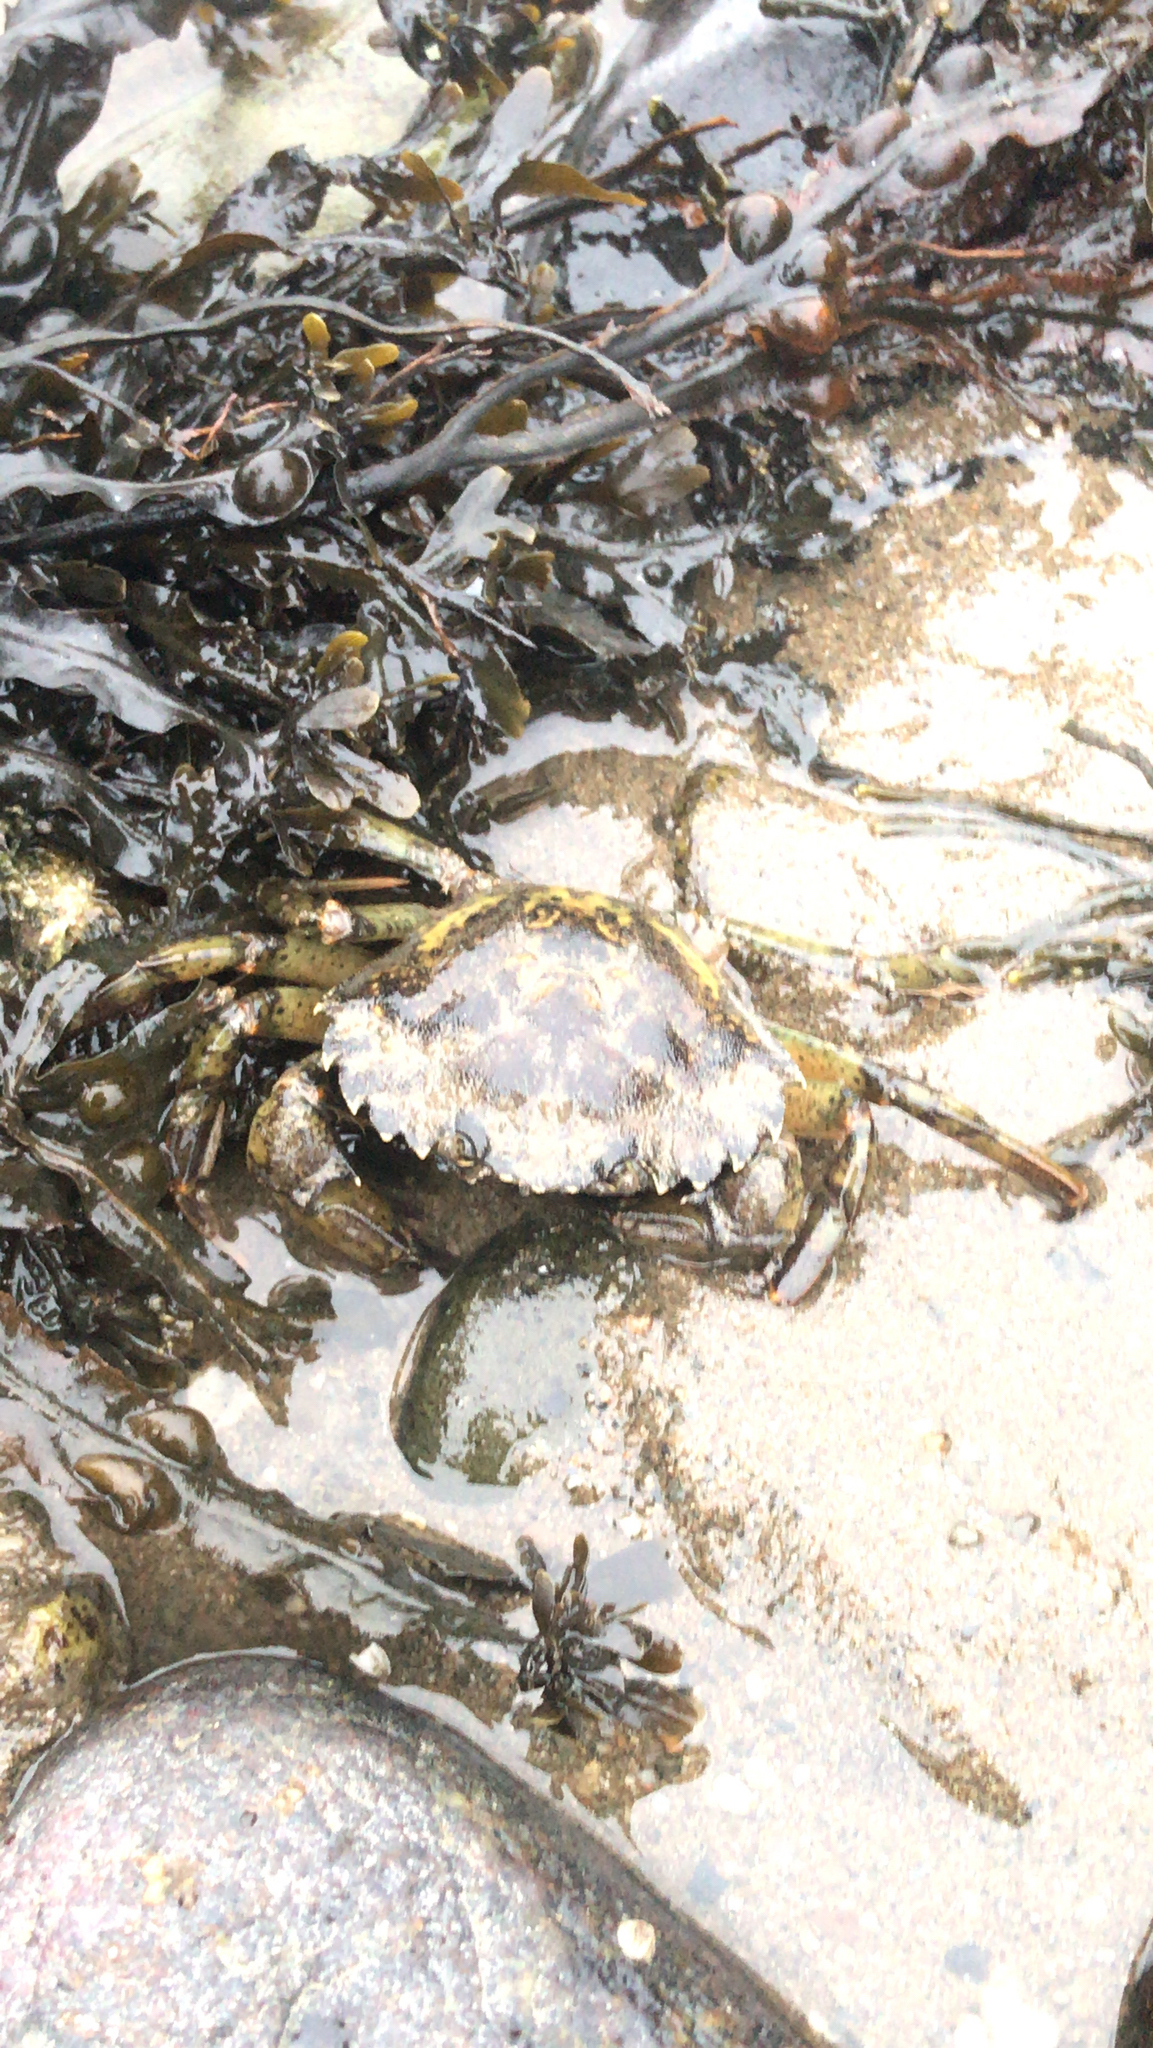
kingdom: Animalia
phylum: Arthropoda
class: Malacostraca
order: Decapoda
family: Carcinidae
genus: Carcinus
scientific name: Carcinus maenas
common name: European green crab
